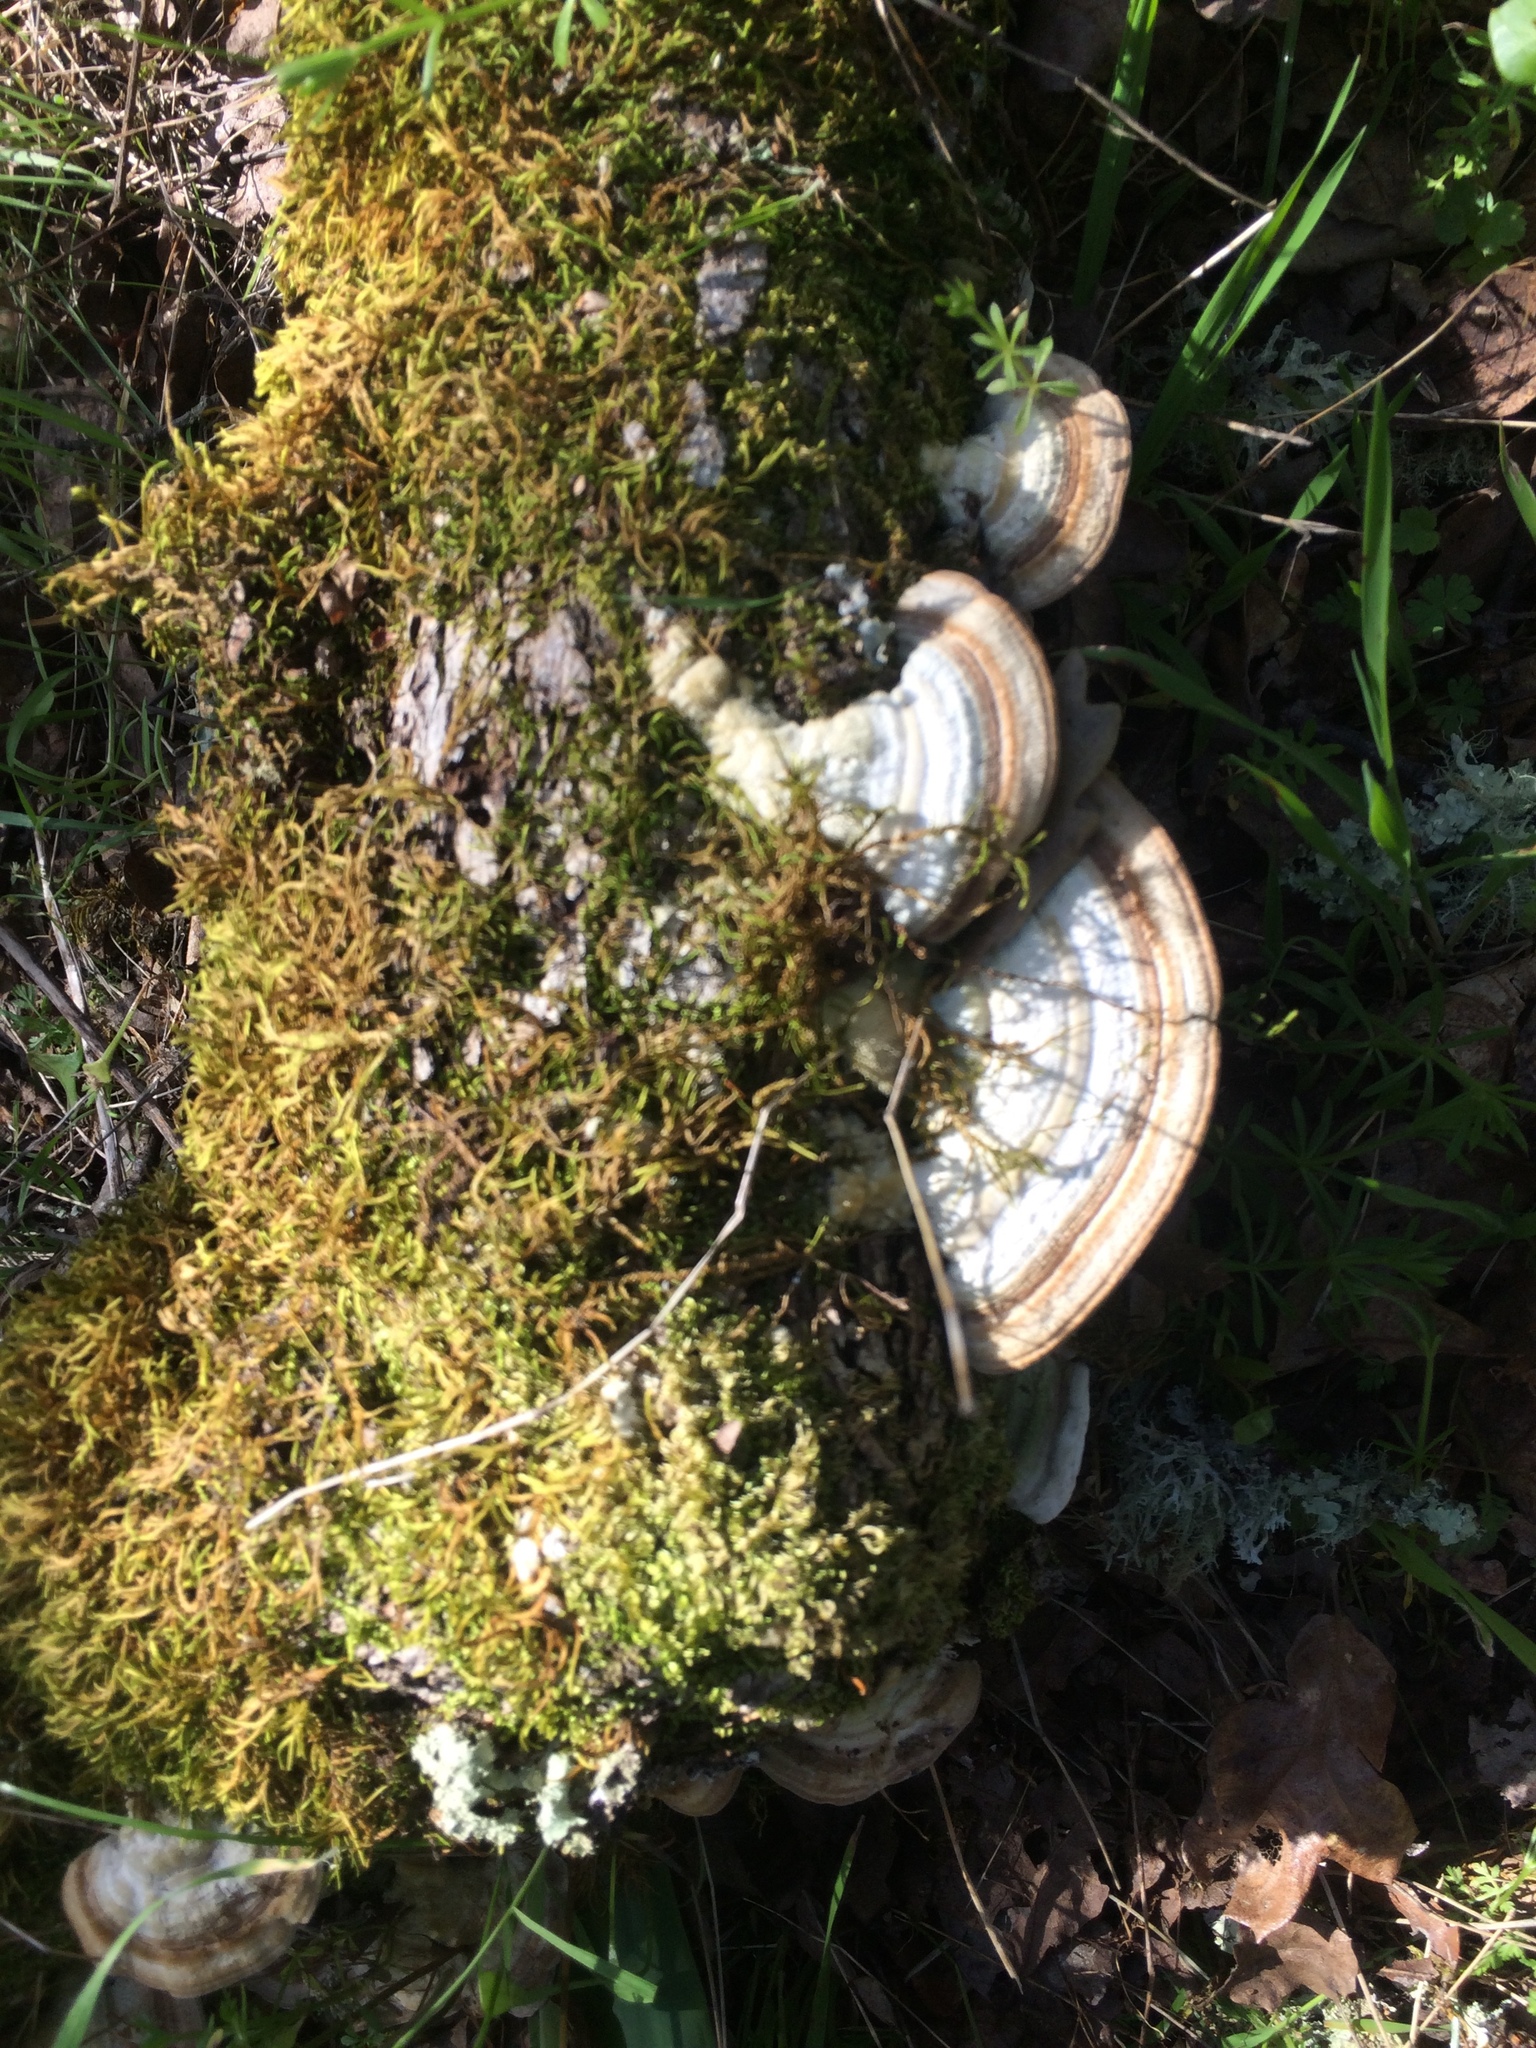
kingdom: Fungi
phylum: Basidiomycota
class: Agaricomycetes
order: Polyporales
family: Polyporaceae
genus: Lenzites
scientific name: Lenzites betulinus
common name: Birch mazegill
